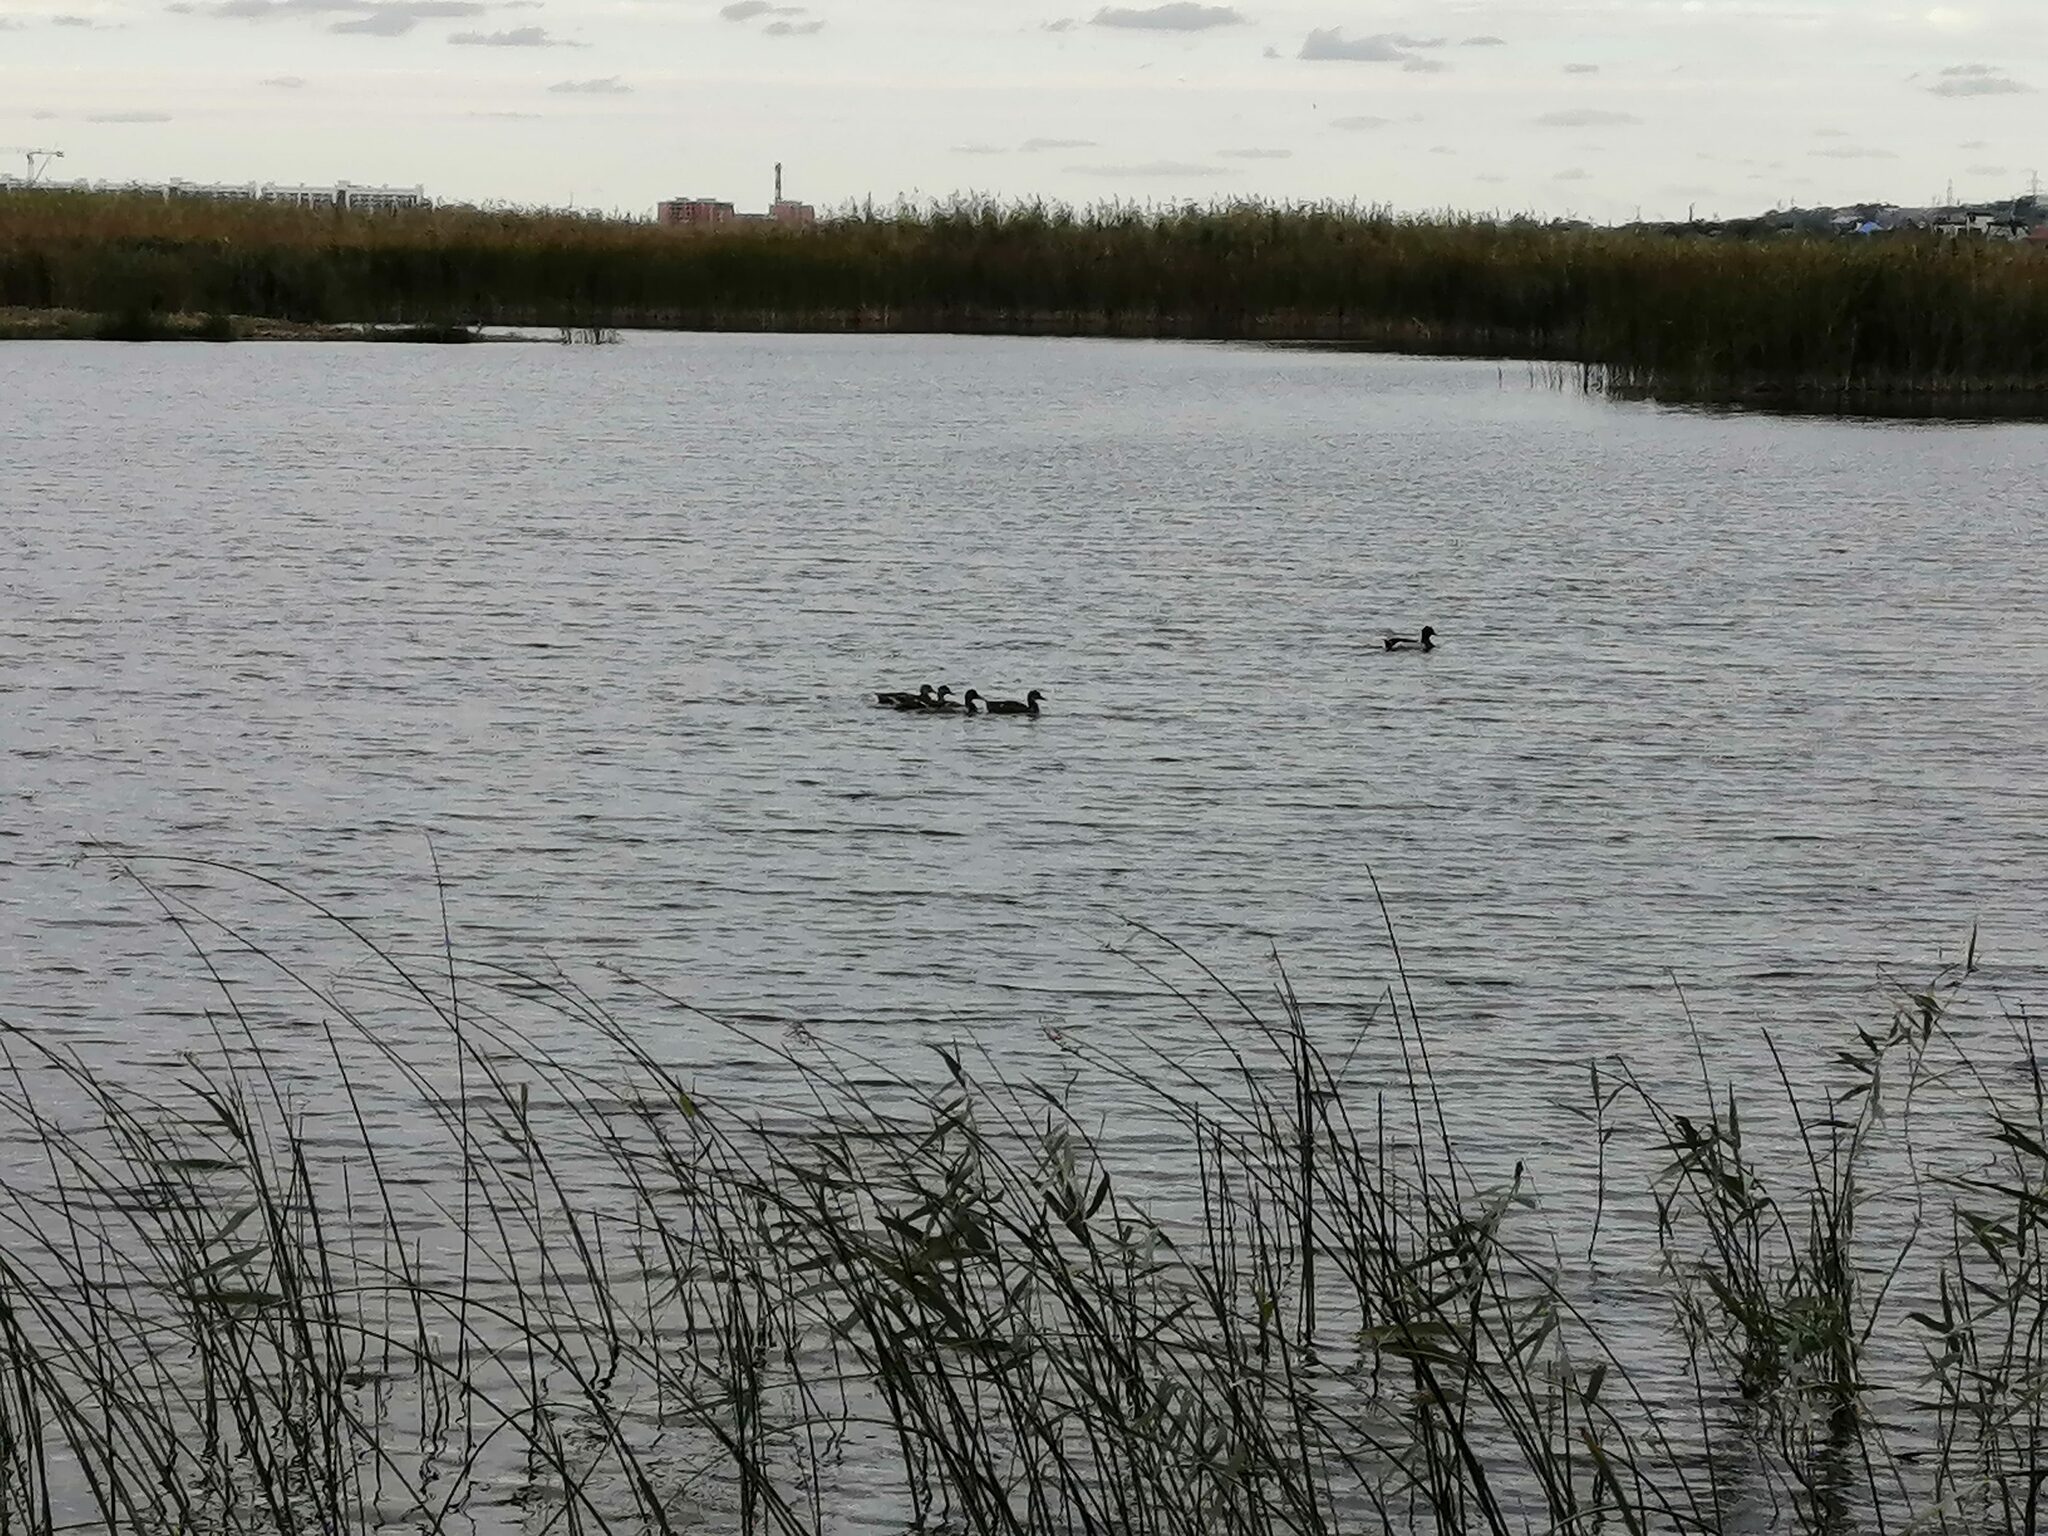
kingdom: Animalia
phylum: Chordata
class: Aves
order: Anseriformes
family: Anatidae
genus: Anas
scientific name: Anas platyrhynchos
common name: Mallard
